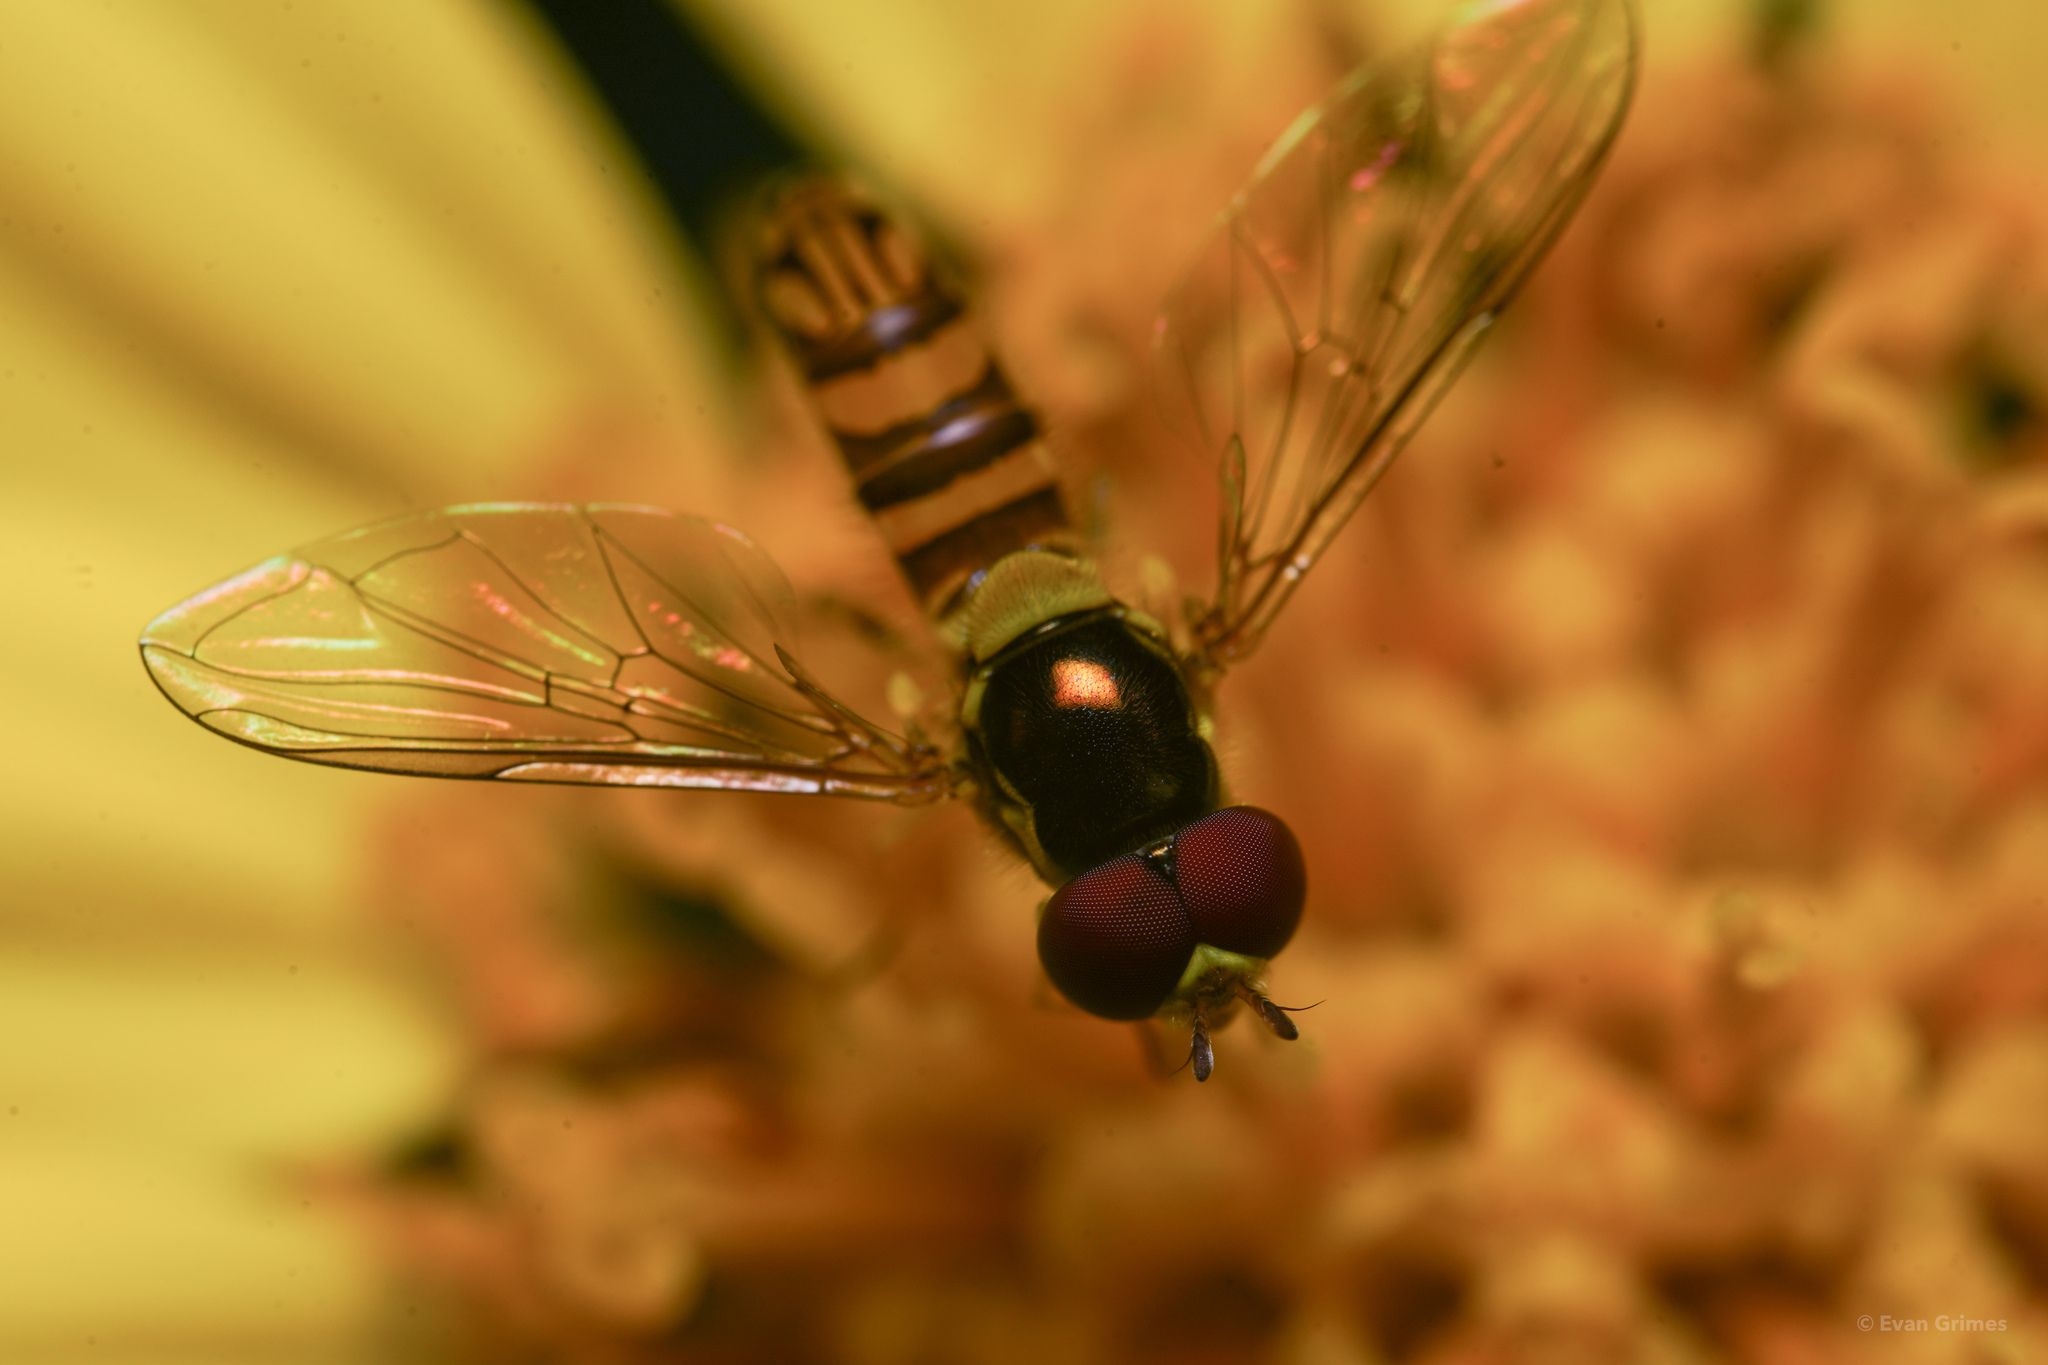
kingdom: Animalia
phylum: Arthropoda
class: Insecta
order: Diptera
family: Syrphidae
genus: Allograpta
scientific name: Allograpta obliqua
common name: Common oblique syrphid
